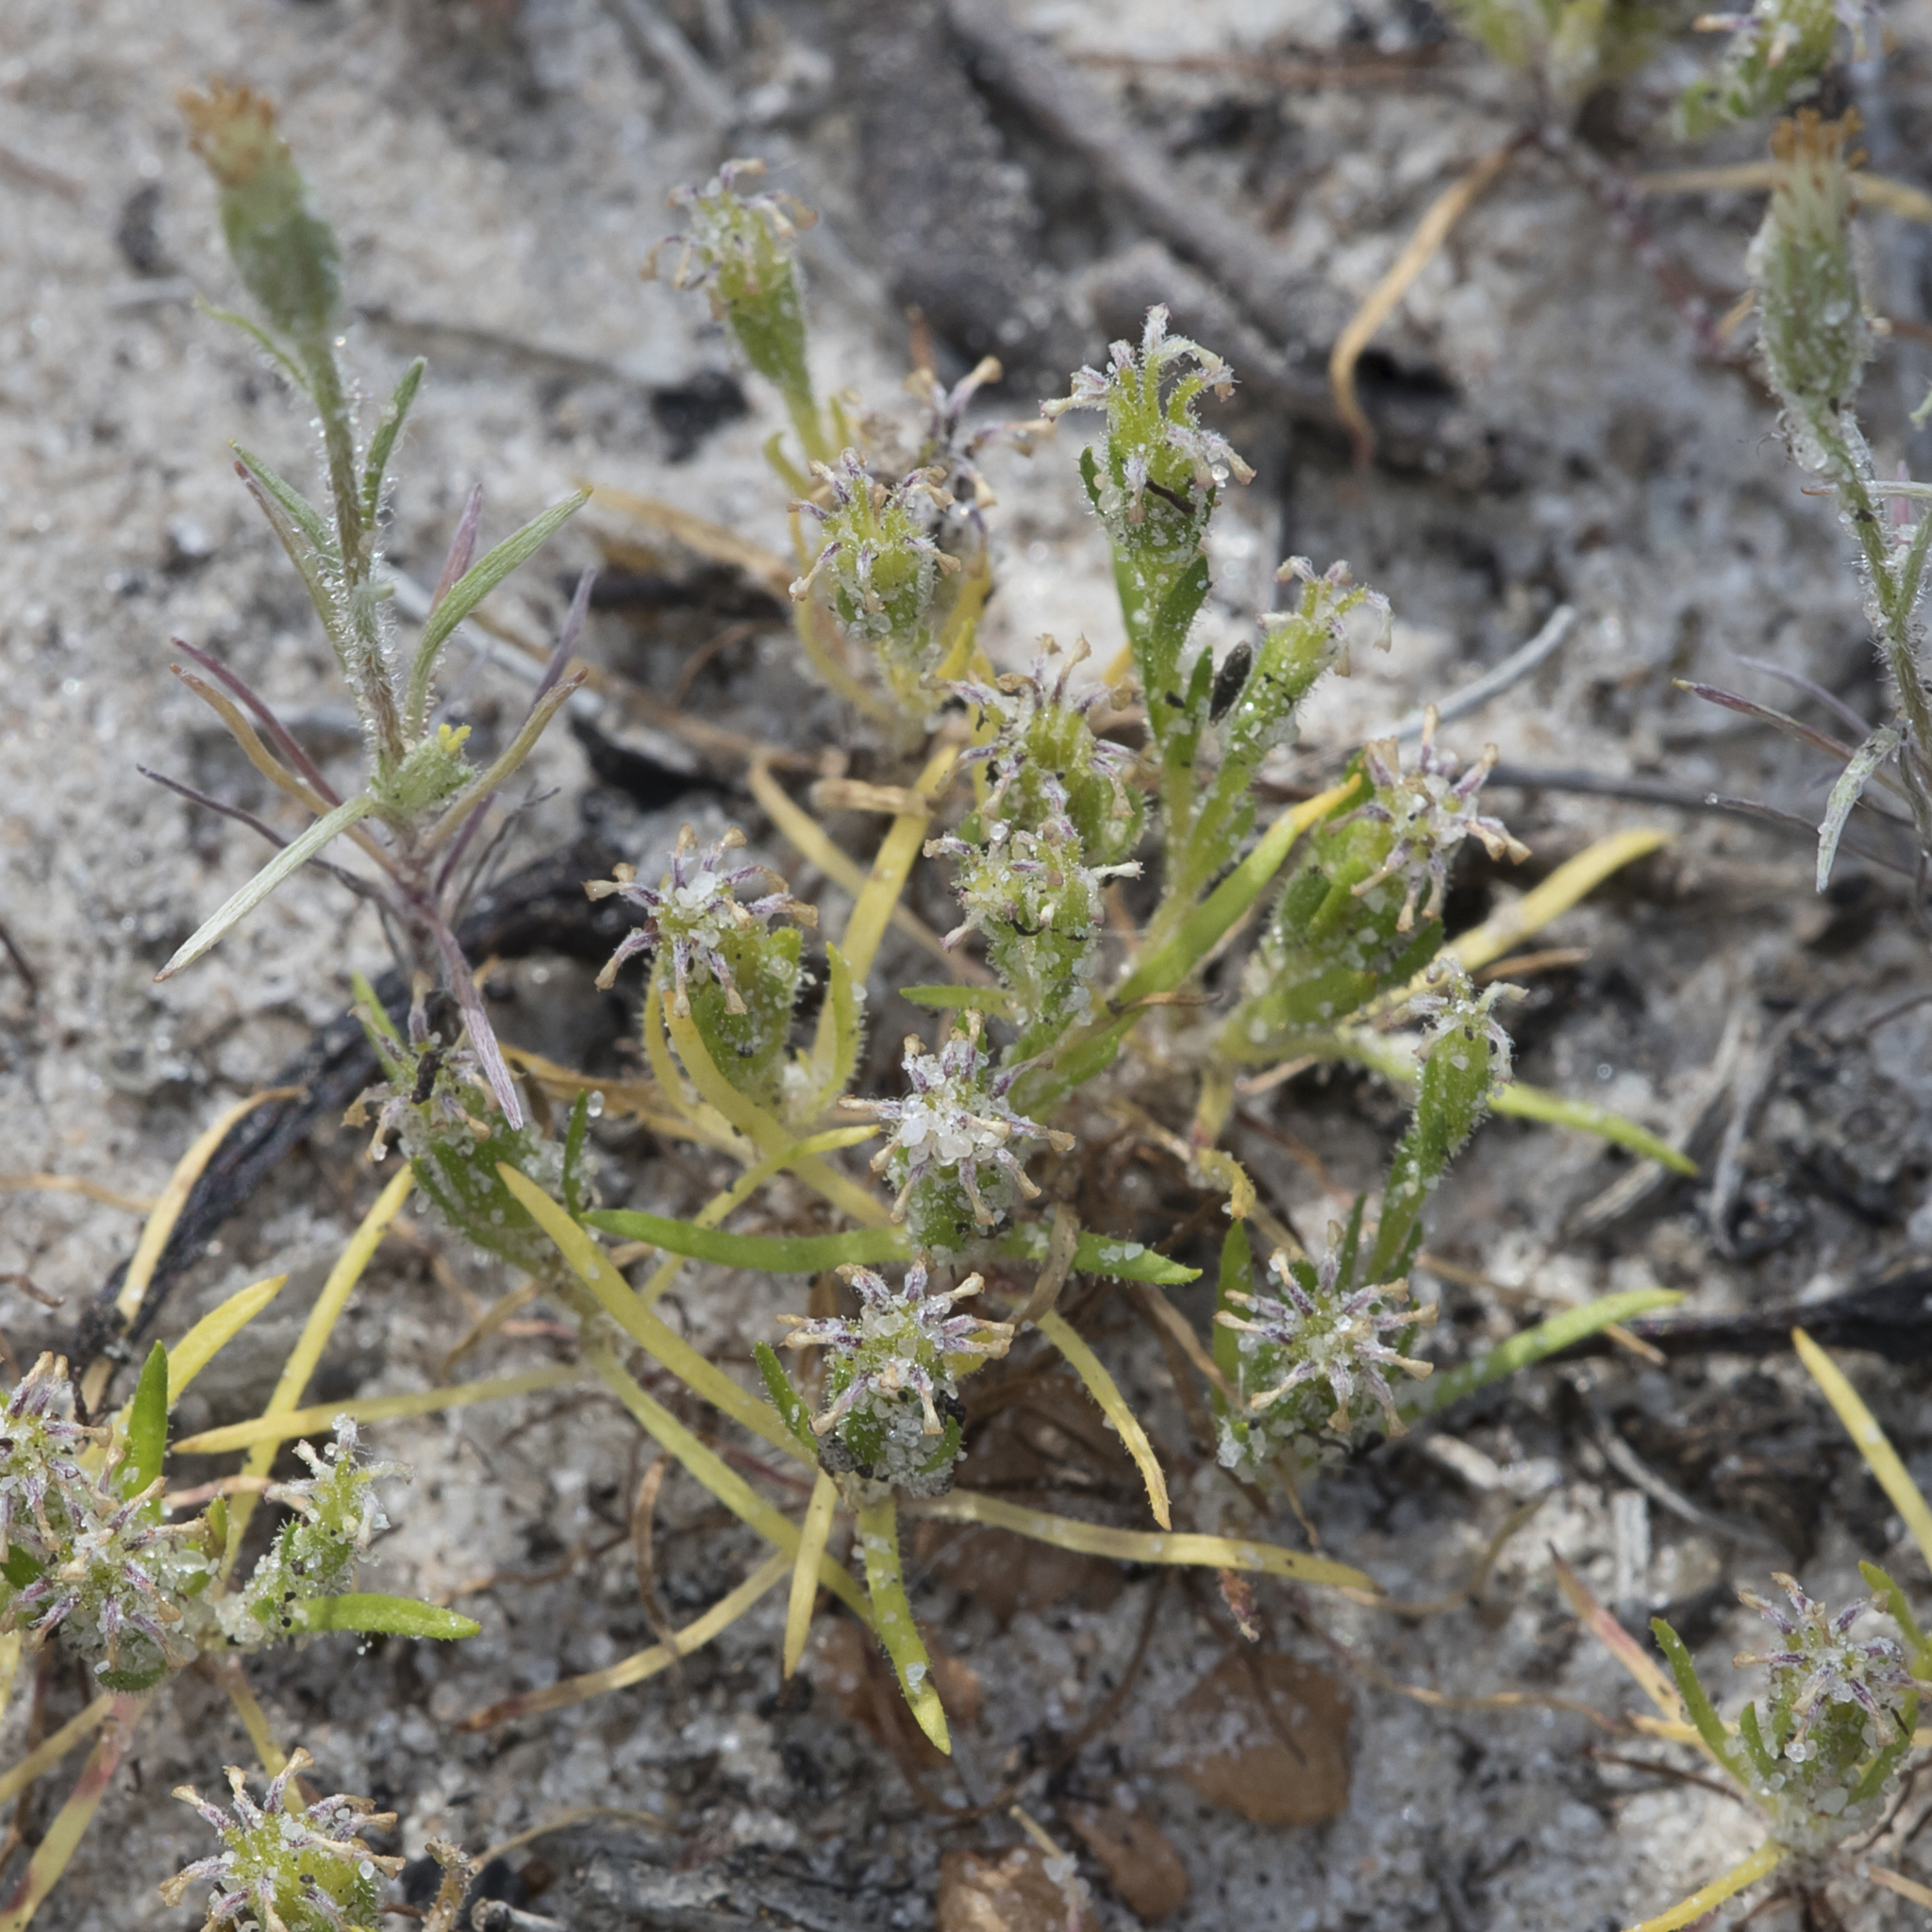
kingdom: Plantae
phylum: Tracheophyta
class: Magnoliopsida
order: Asterales
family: Asteraceae
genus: Millotia
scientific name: Millotia muelleri
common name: Common bow-flower
